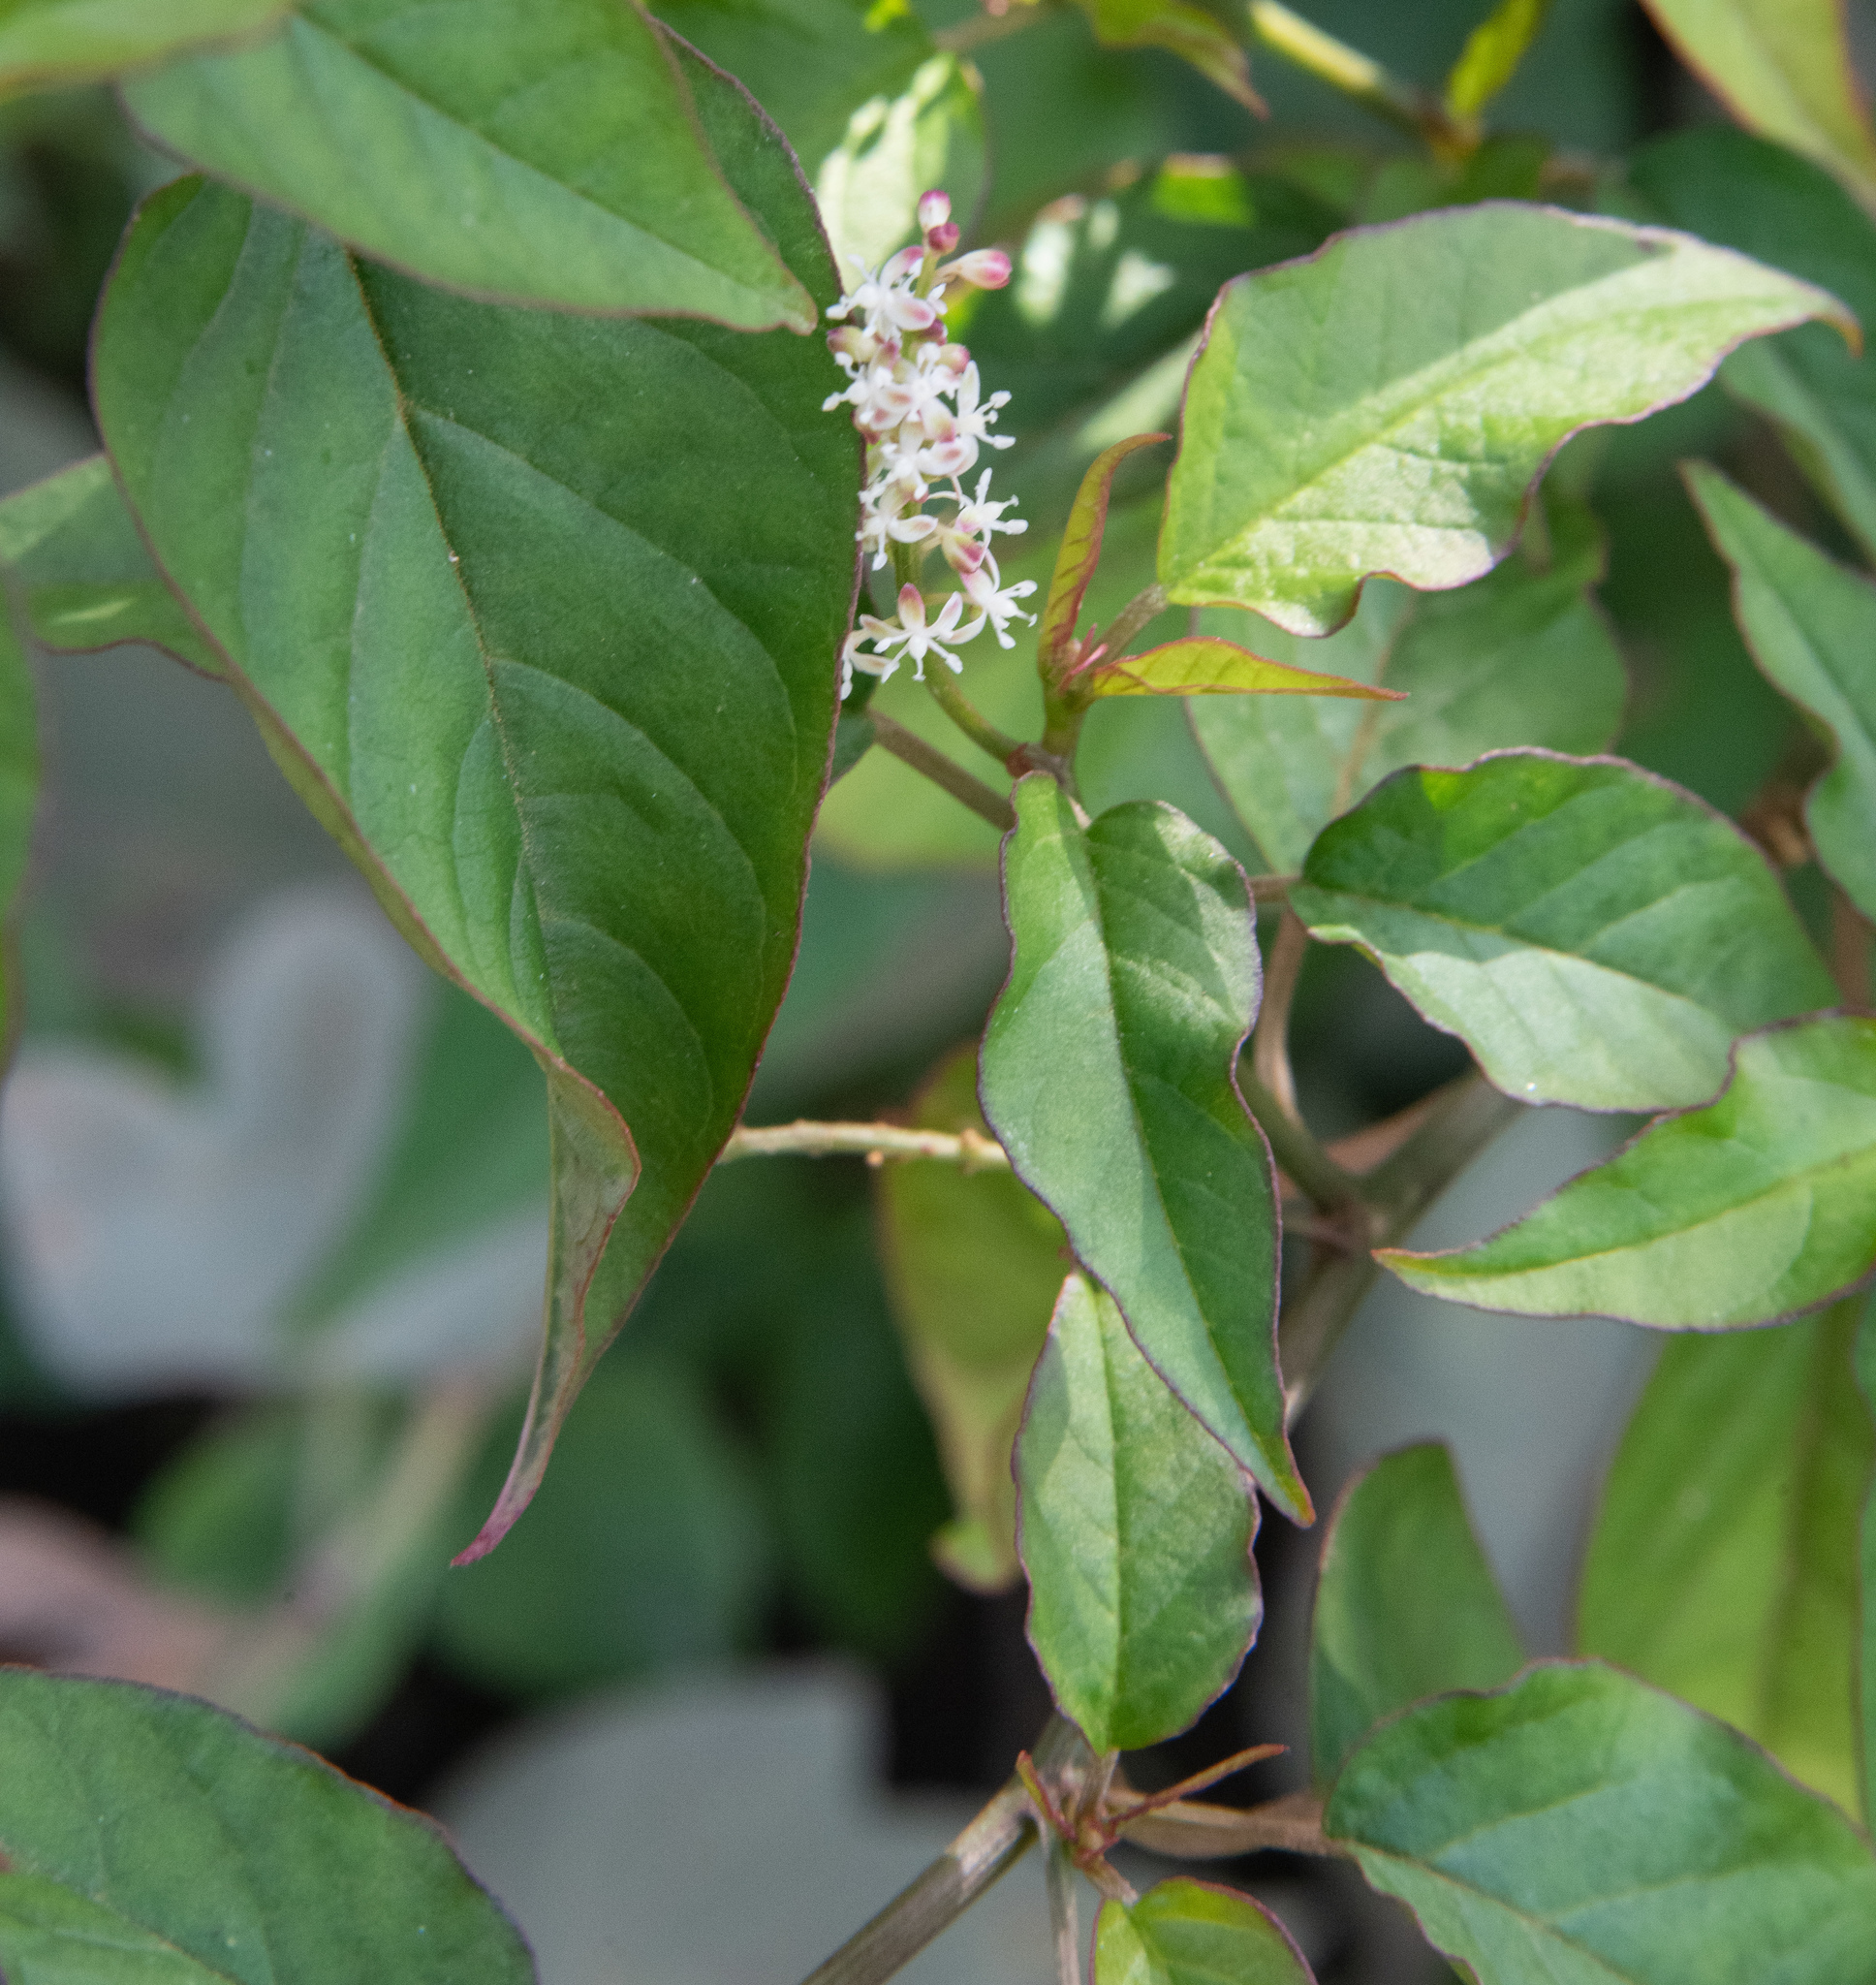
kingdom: Plantae
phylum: Tracheophyta
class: Magnoliopsida
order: Caryophyllales
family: Phytolaccaceae
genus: Rivina
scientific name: Rivina humilis
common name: Rougeplant
